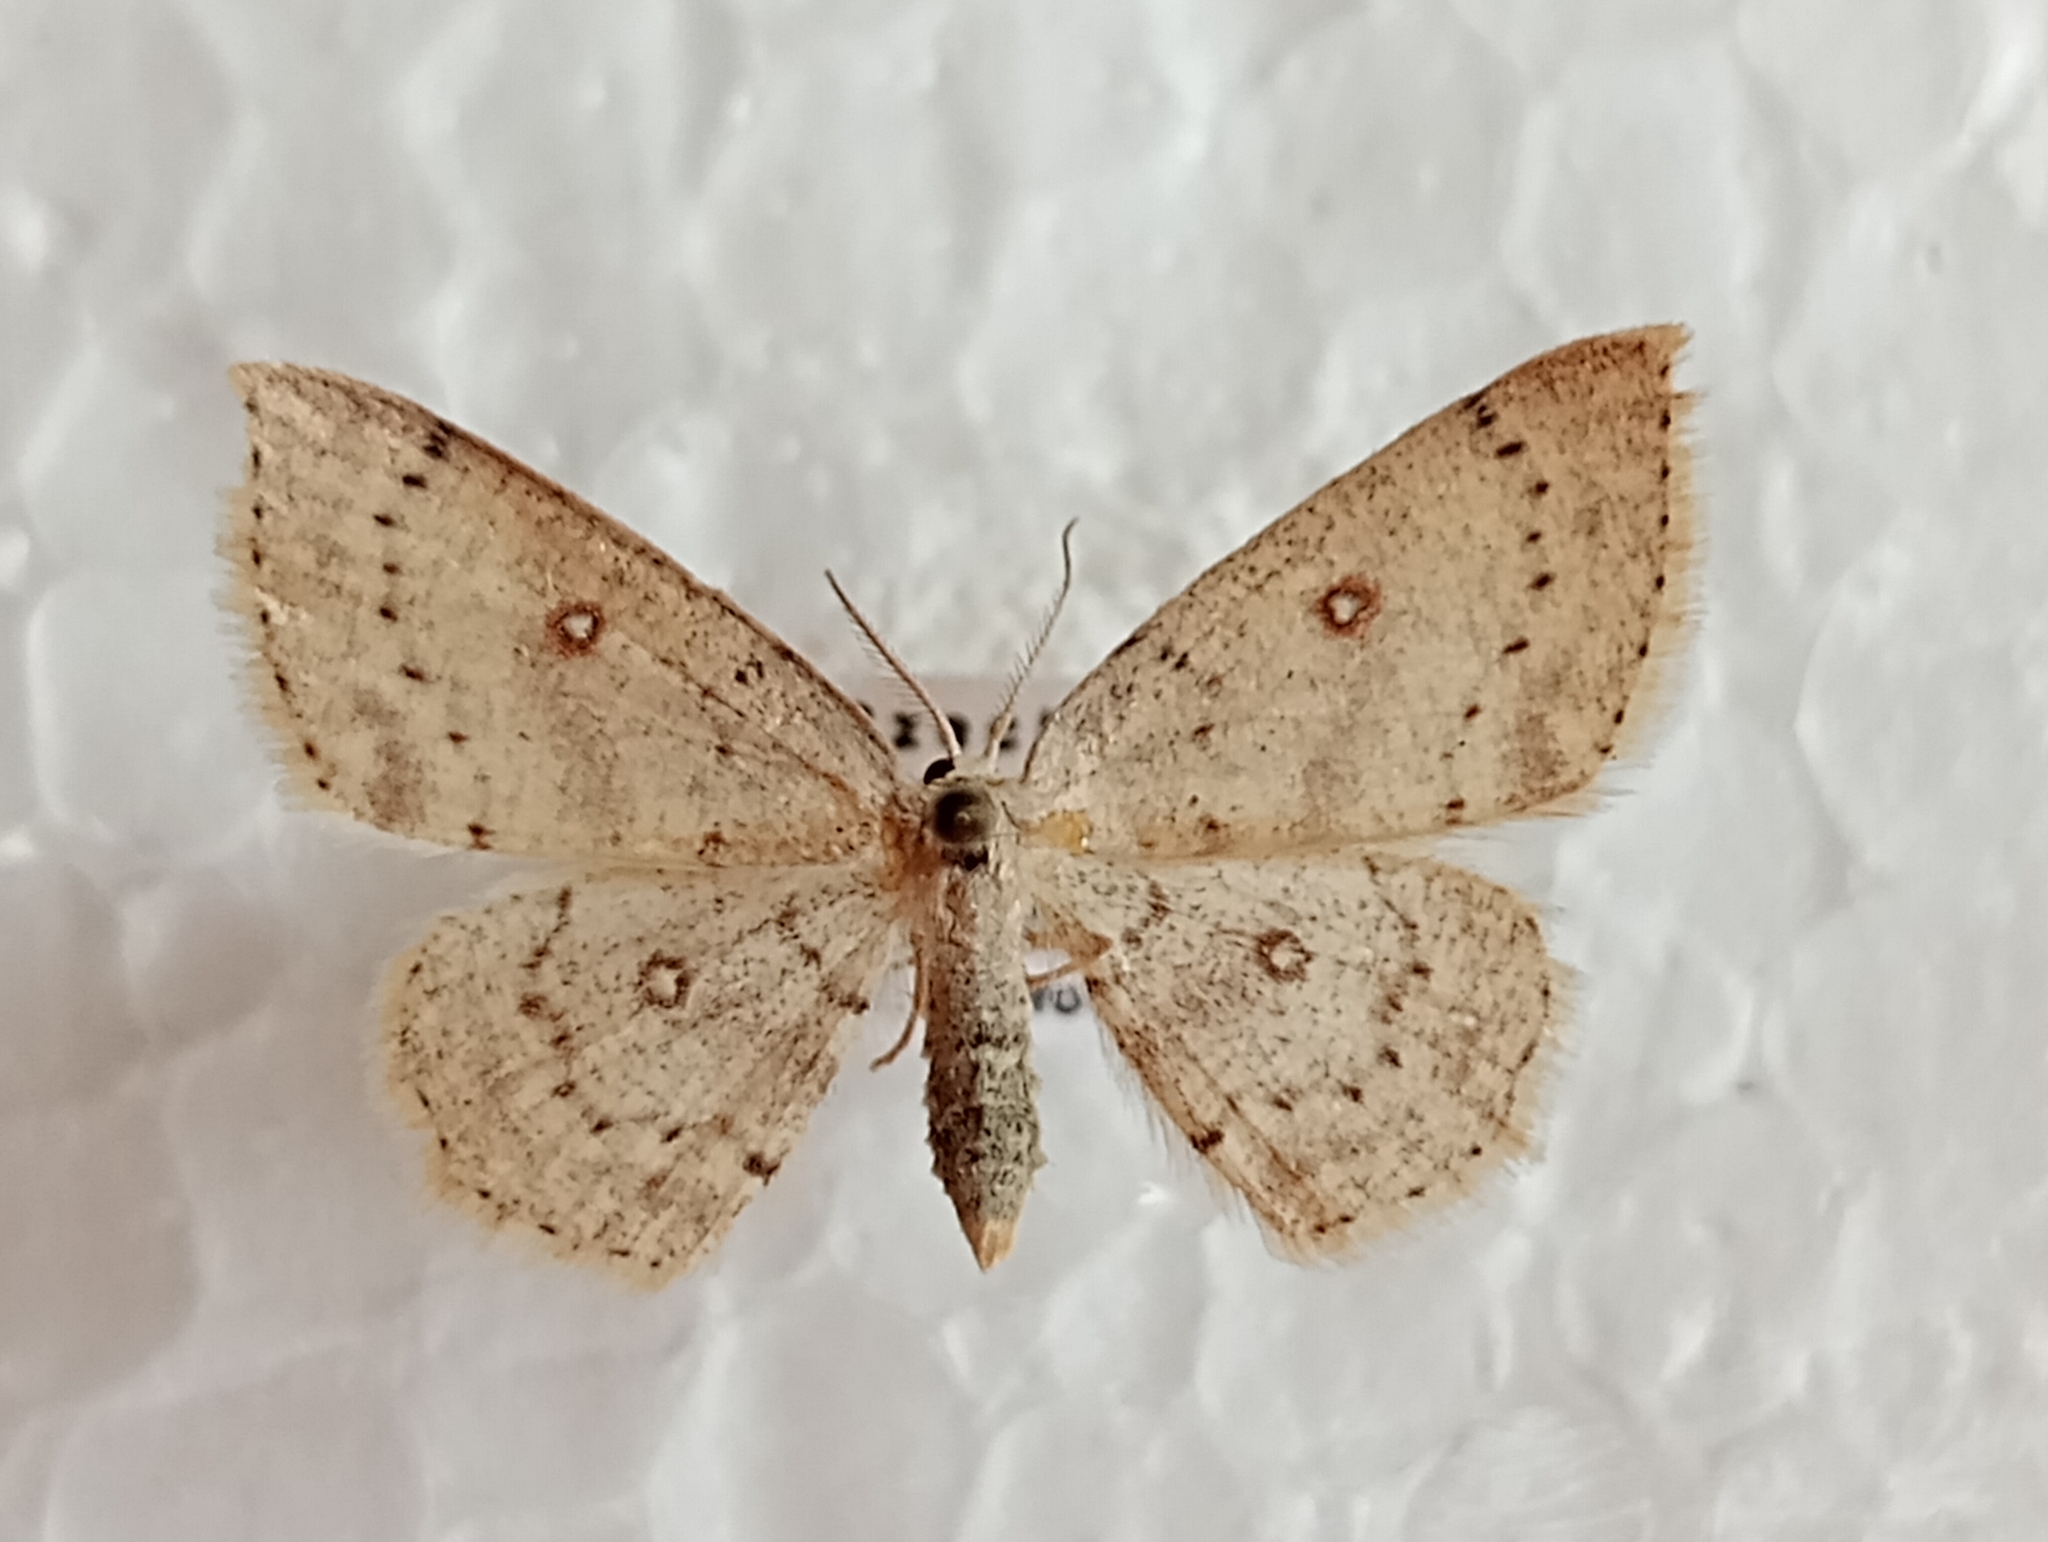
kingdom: Animalia
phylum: Arthropoda
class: Insecta
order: Lepidoptera
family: Geometridae
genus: Cyclophora
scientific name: Cyclophora albipunctata
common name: Birch mocha
